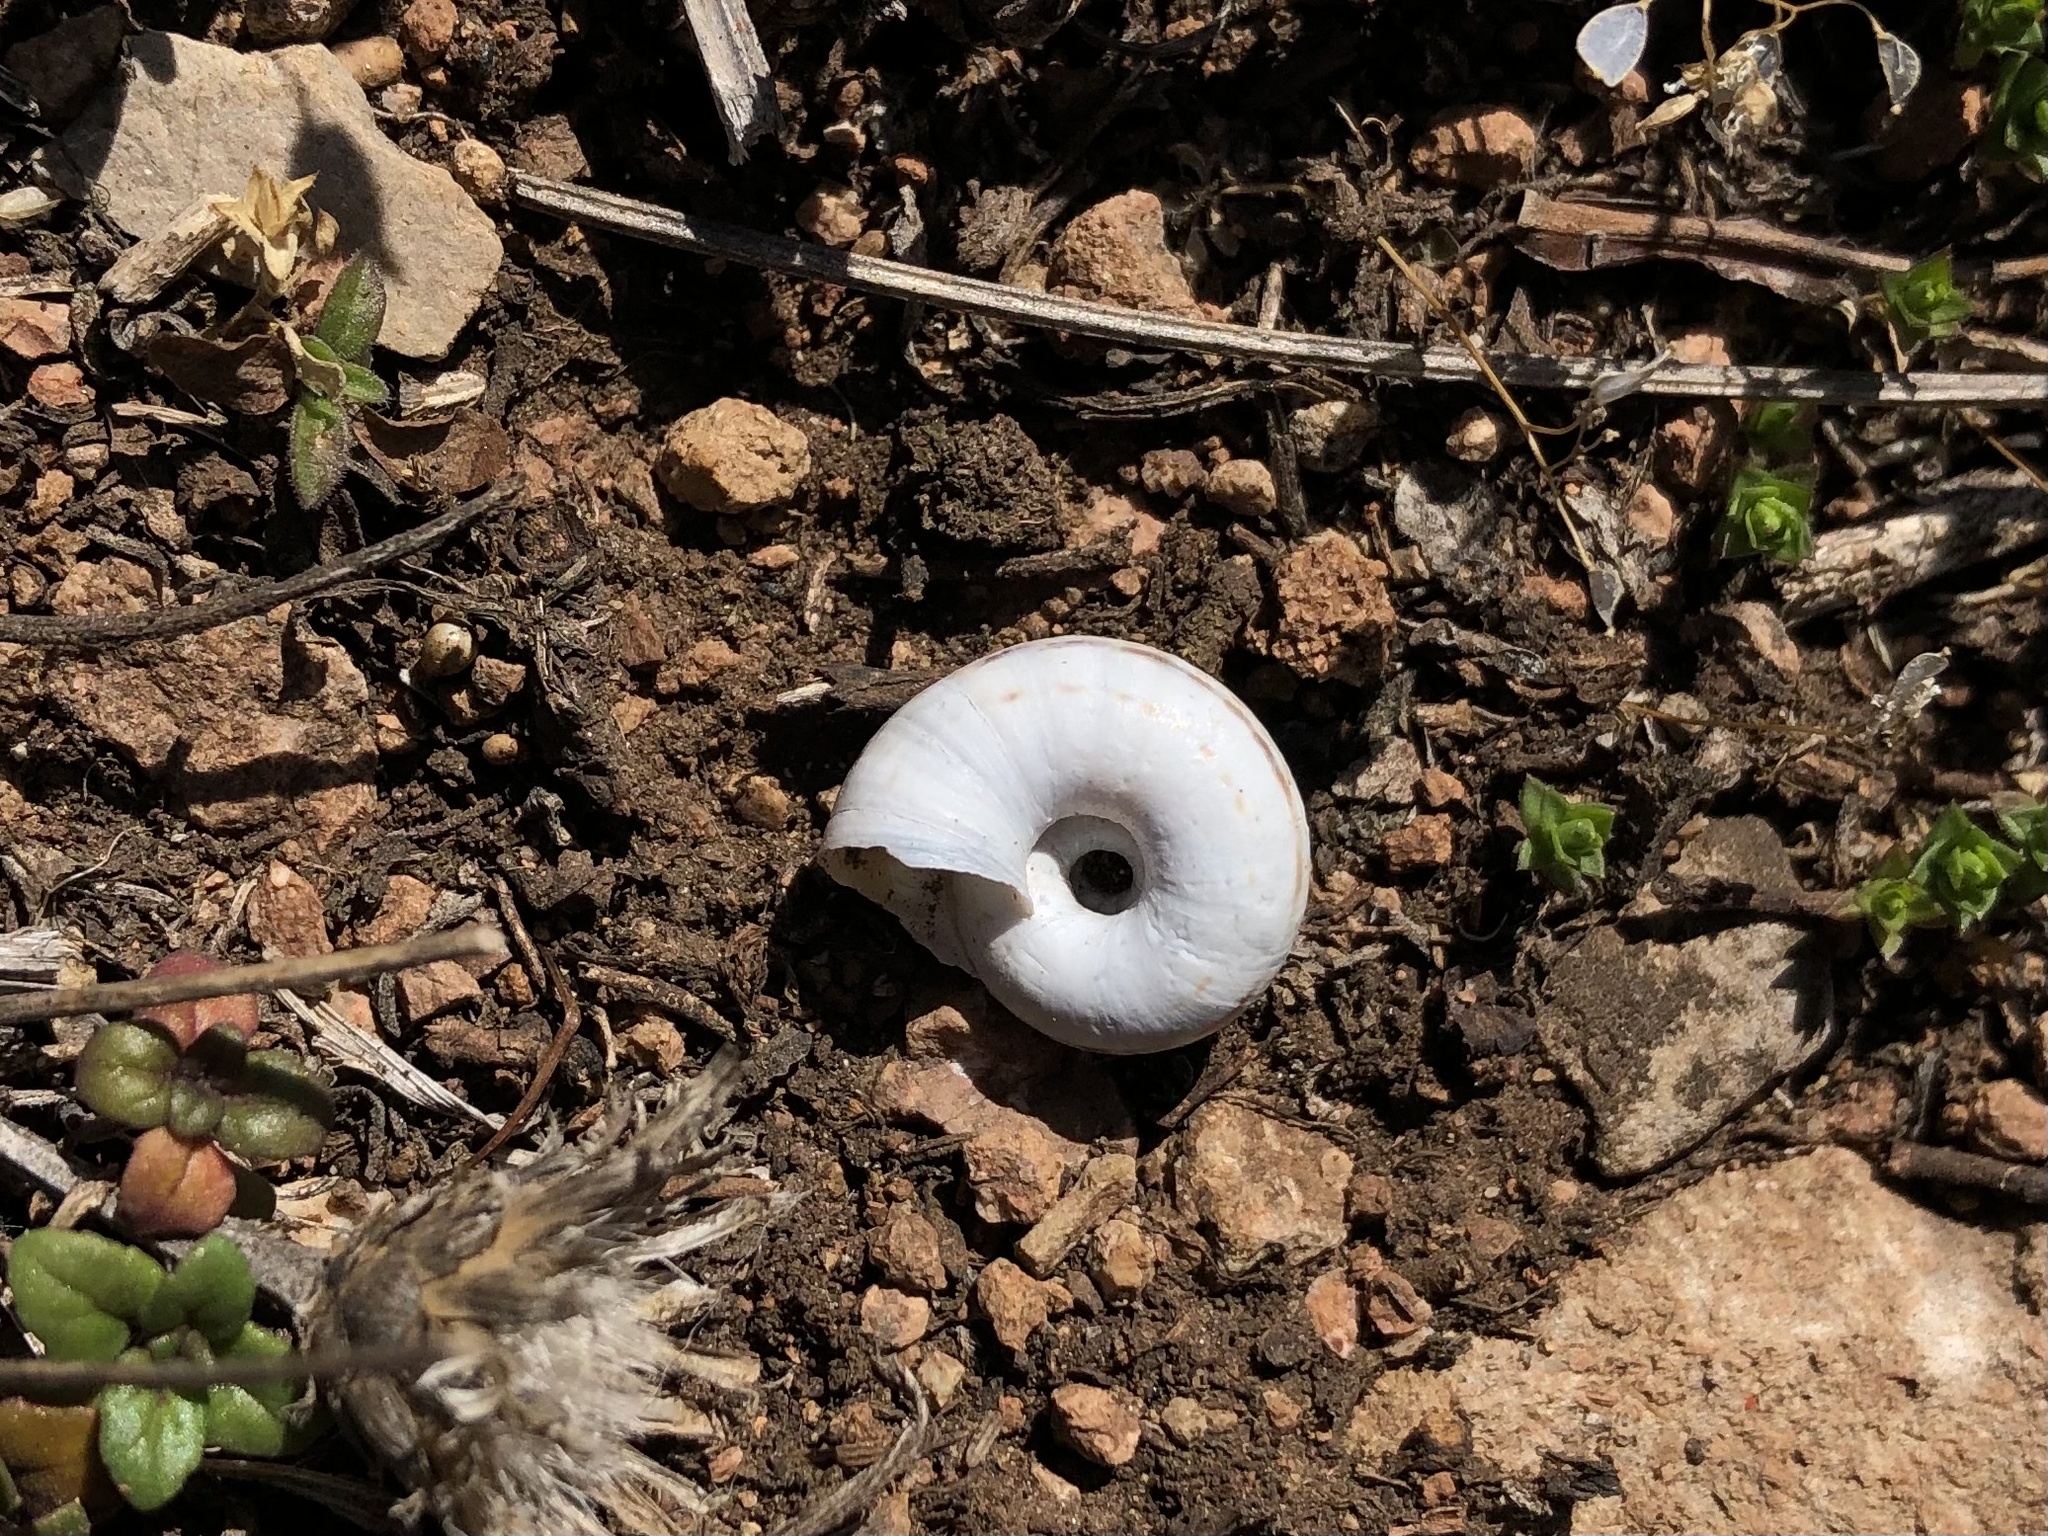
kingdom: Animalia
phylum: Mollusca
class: Gastropoda
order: Stylommatophora
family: Geomitridae
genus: Xerolenta
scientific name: Xerolenta obvia
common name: White heath snail
